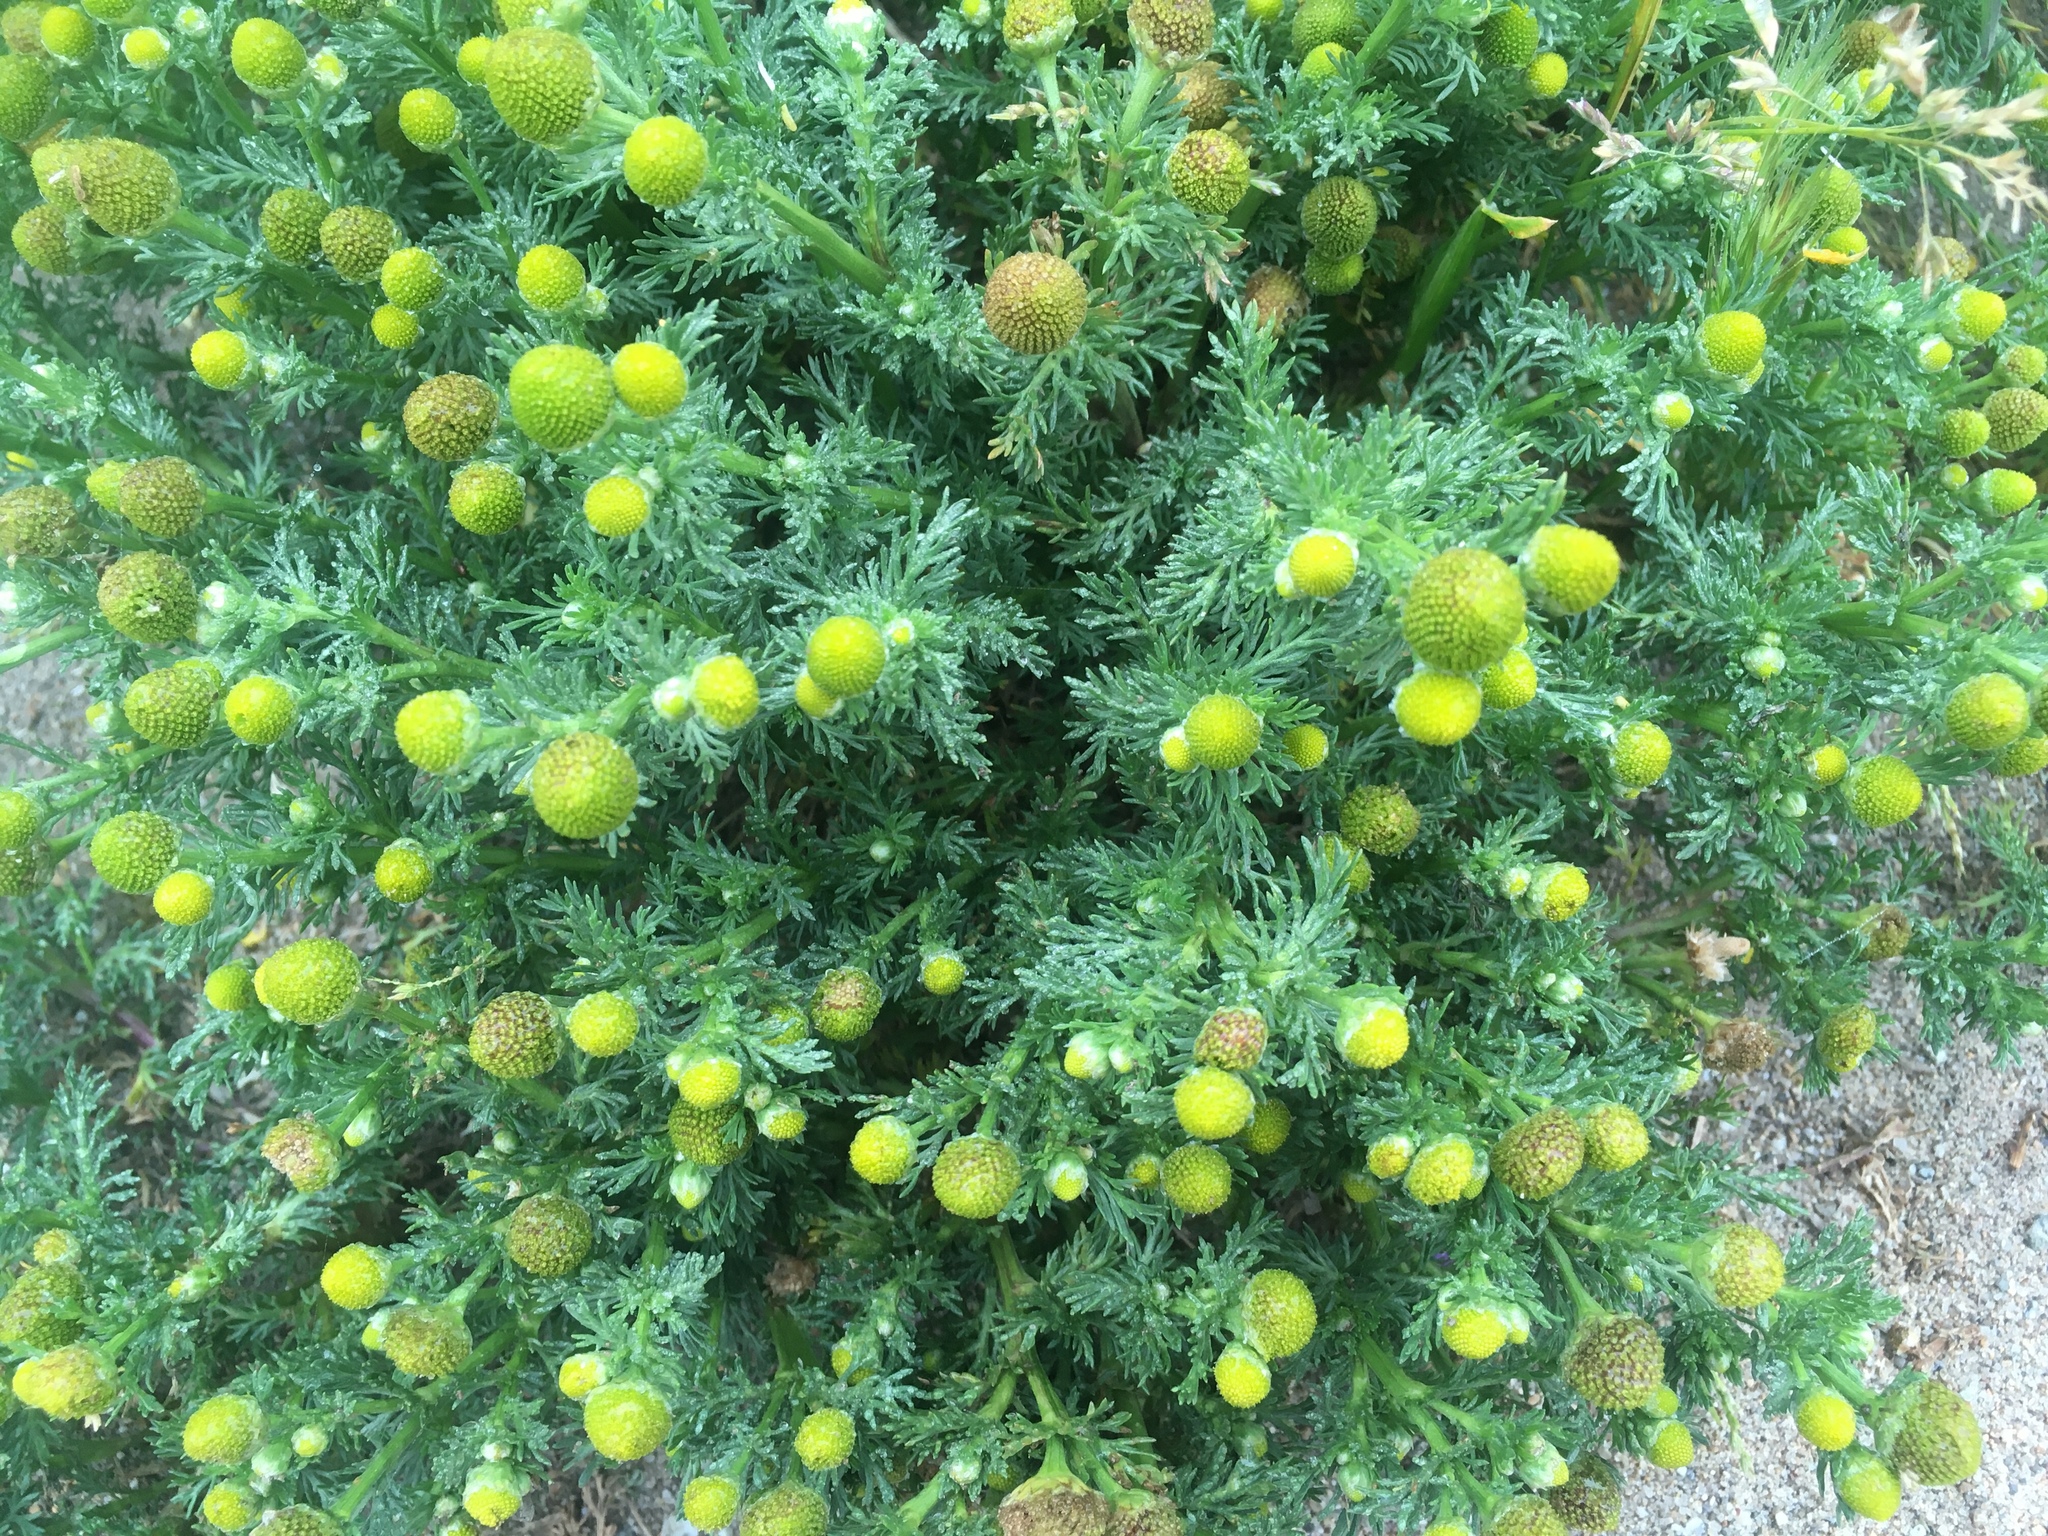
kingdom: Plantae
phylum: Tracheophyta
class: Magnoliopsida
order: Asterales
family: Asteraceae
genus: Matricaria
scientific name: Matricaria discoidea
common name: Disc mayweed
